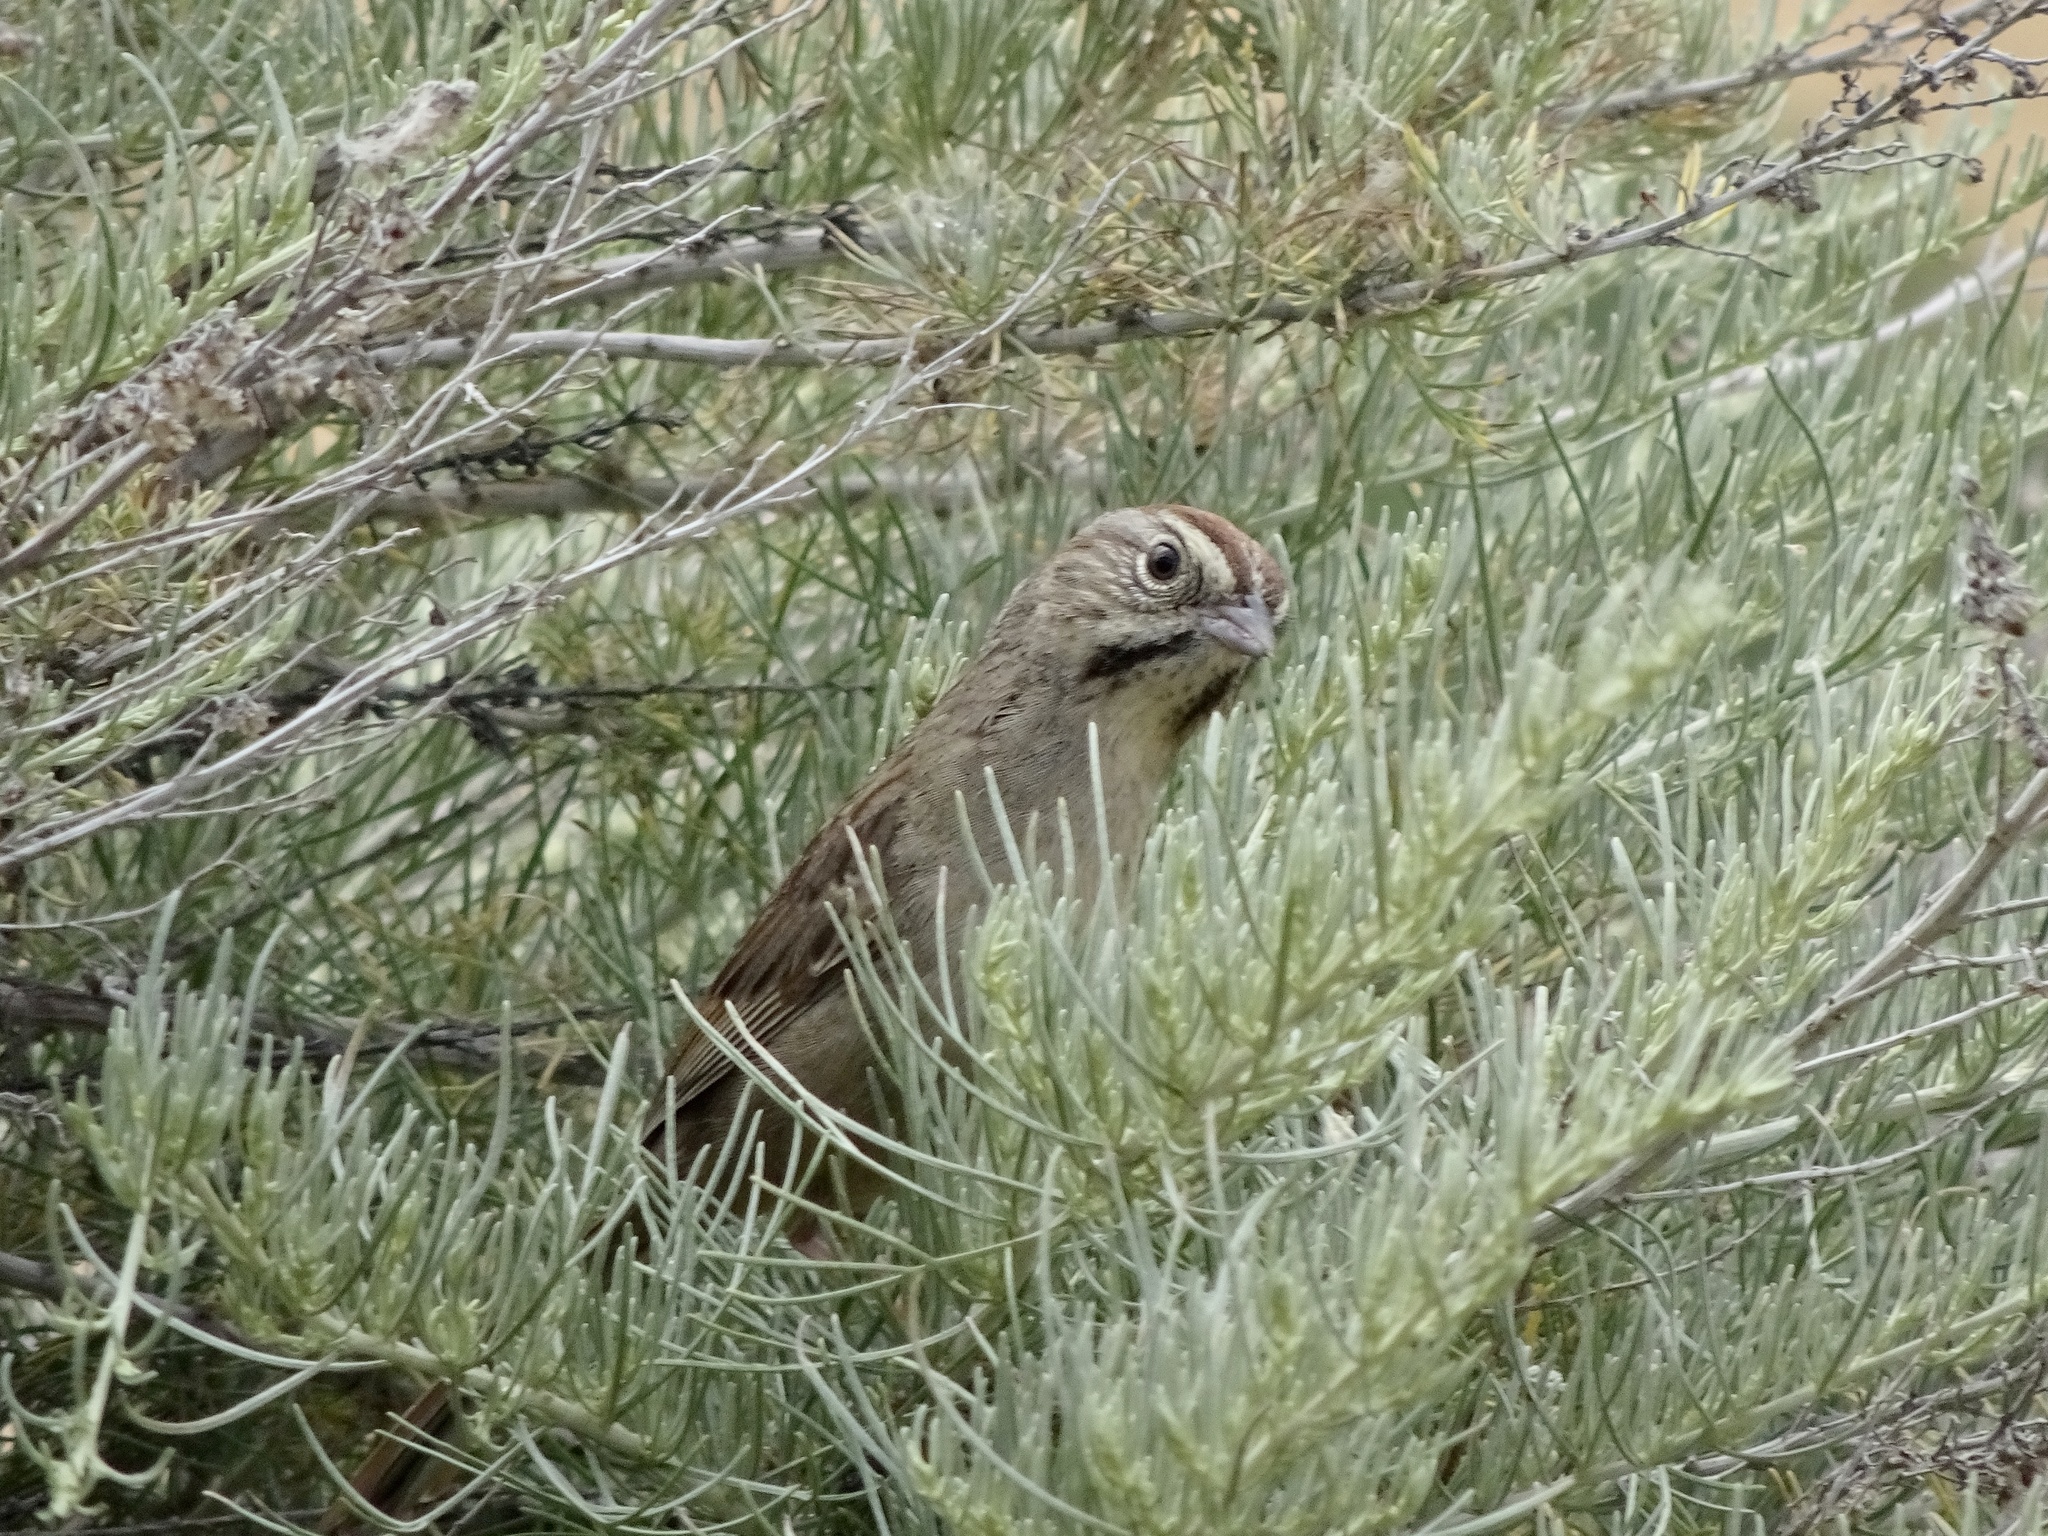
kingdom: Animalia
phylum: Chordata
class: Aves
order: Passeriformes
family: Passerellidae
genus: Aimophila
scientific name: Aimophila ruficeps
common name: Rufous-crowned sparrow
